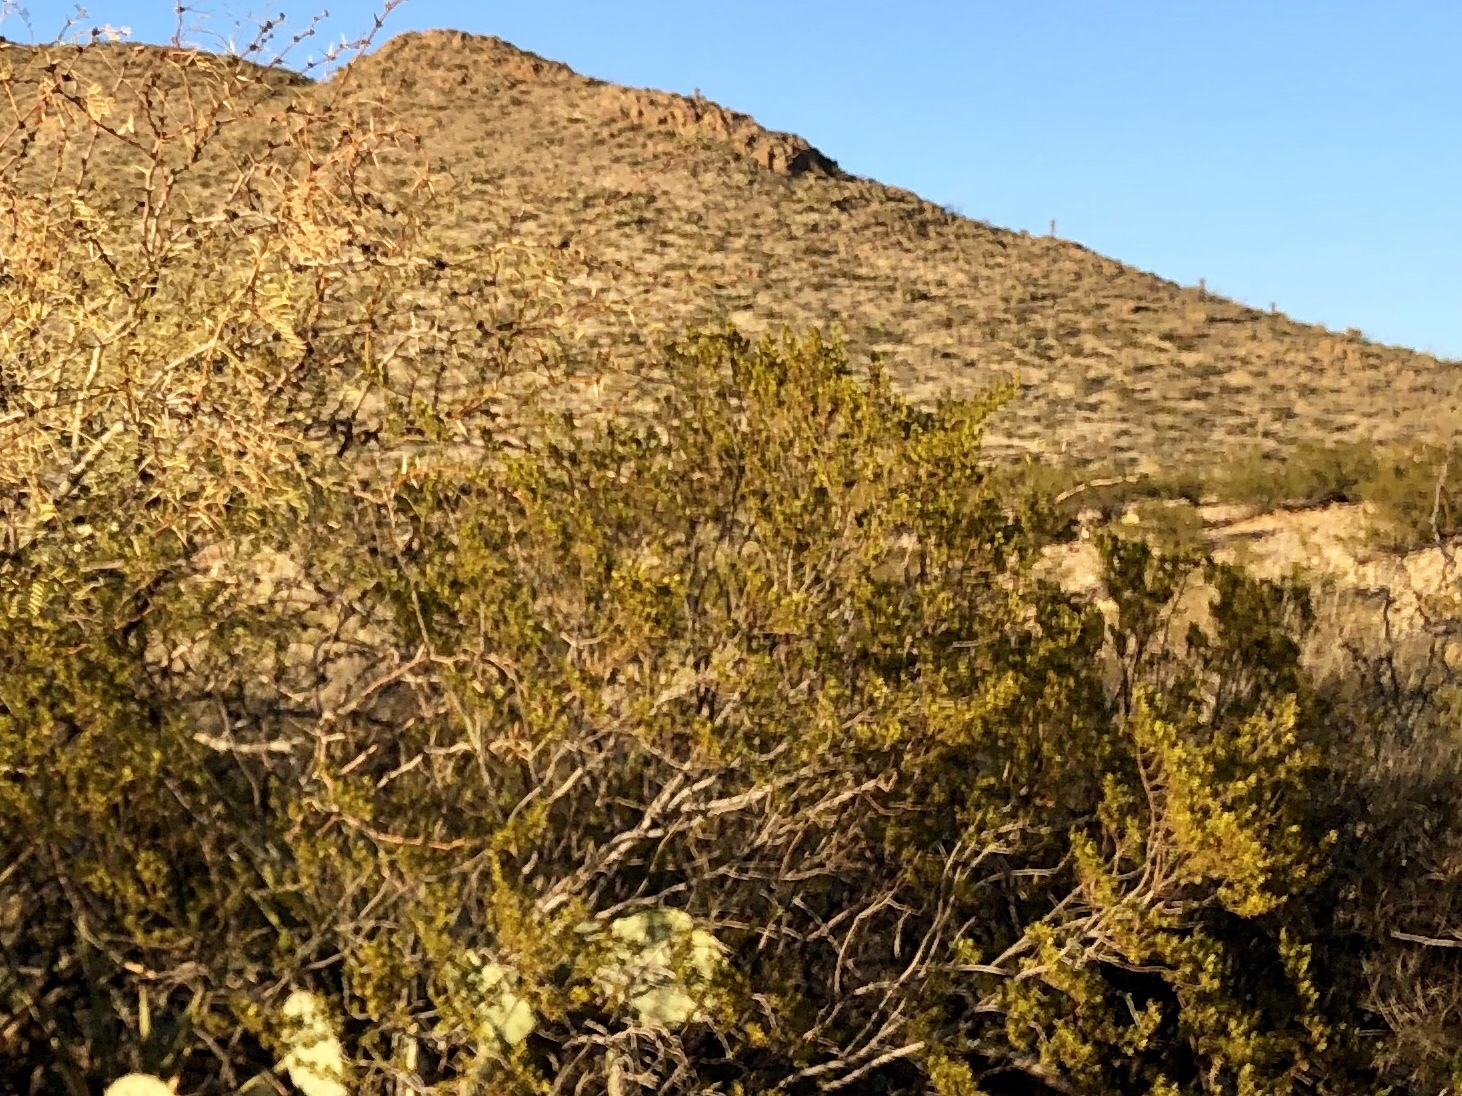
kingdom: Plantae
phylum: Tracheophyta
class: Magnoliopsida
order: Zygophyllales
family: Zygophyllaceae
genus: Larrea
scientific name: Larrea tridentata
